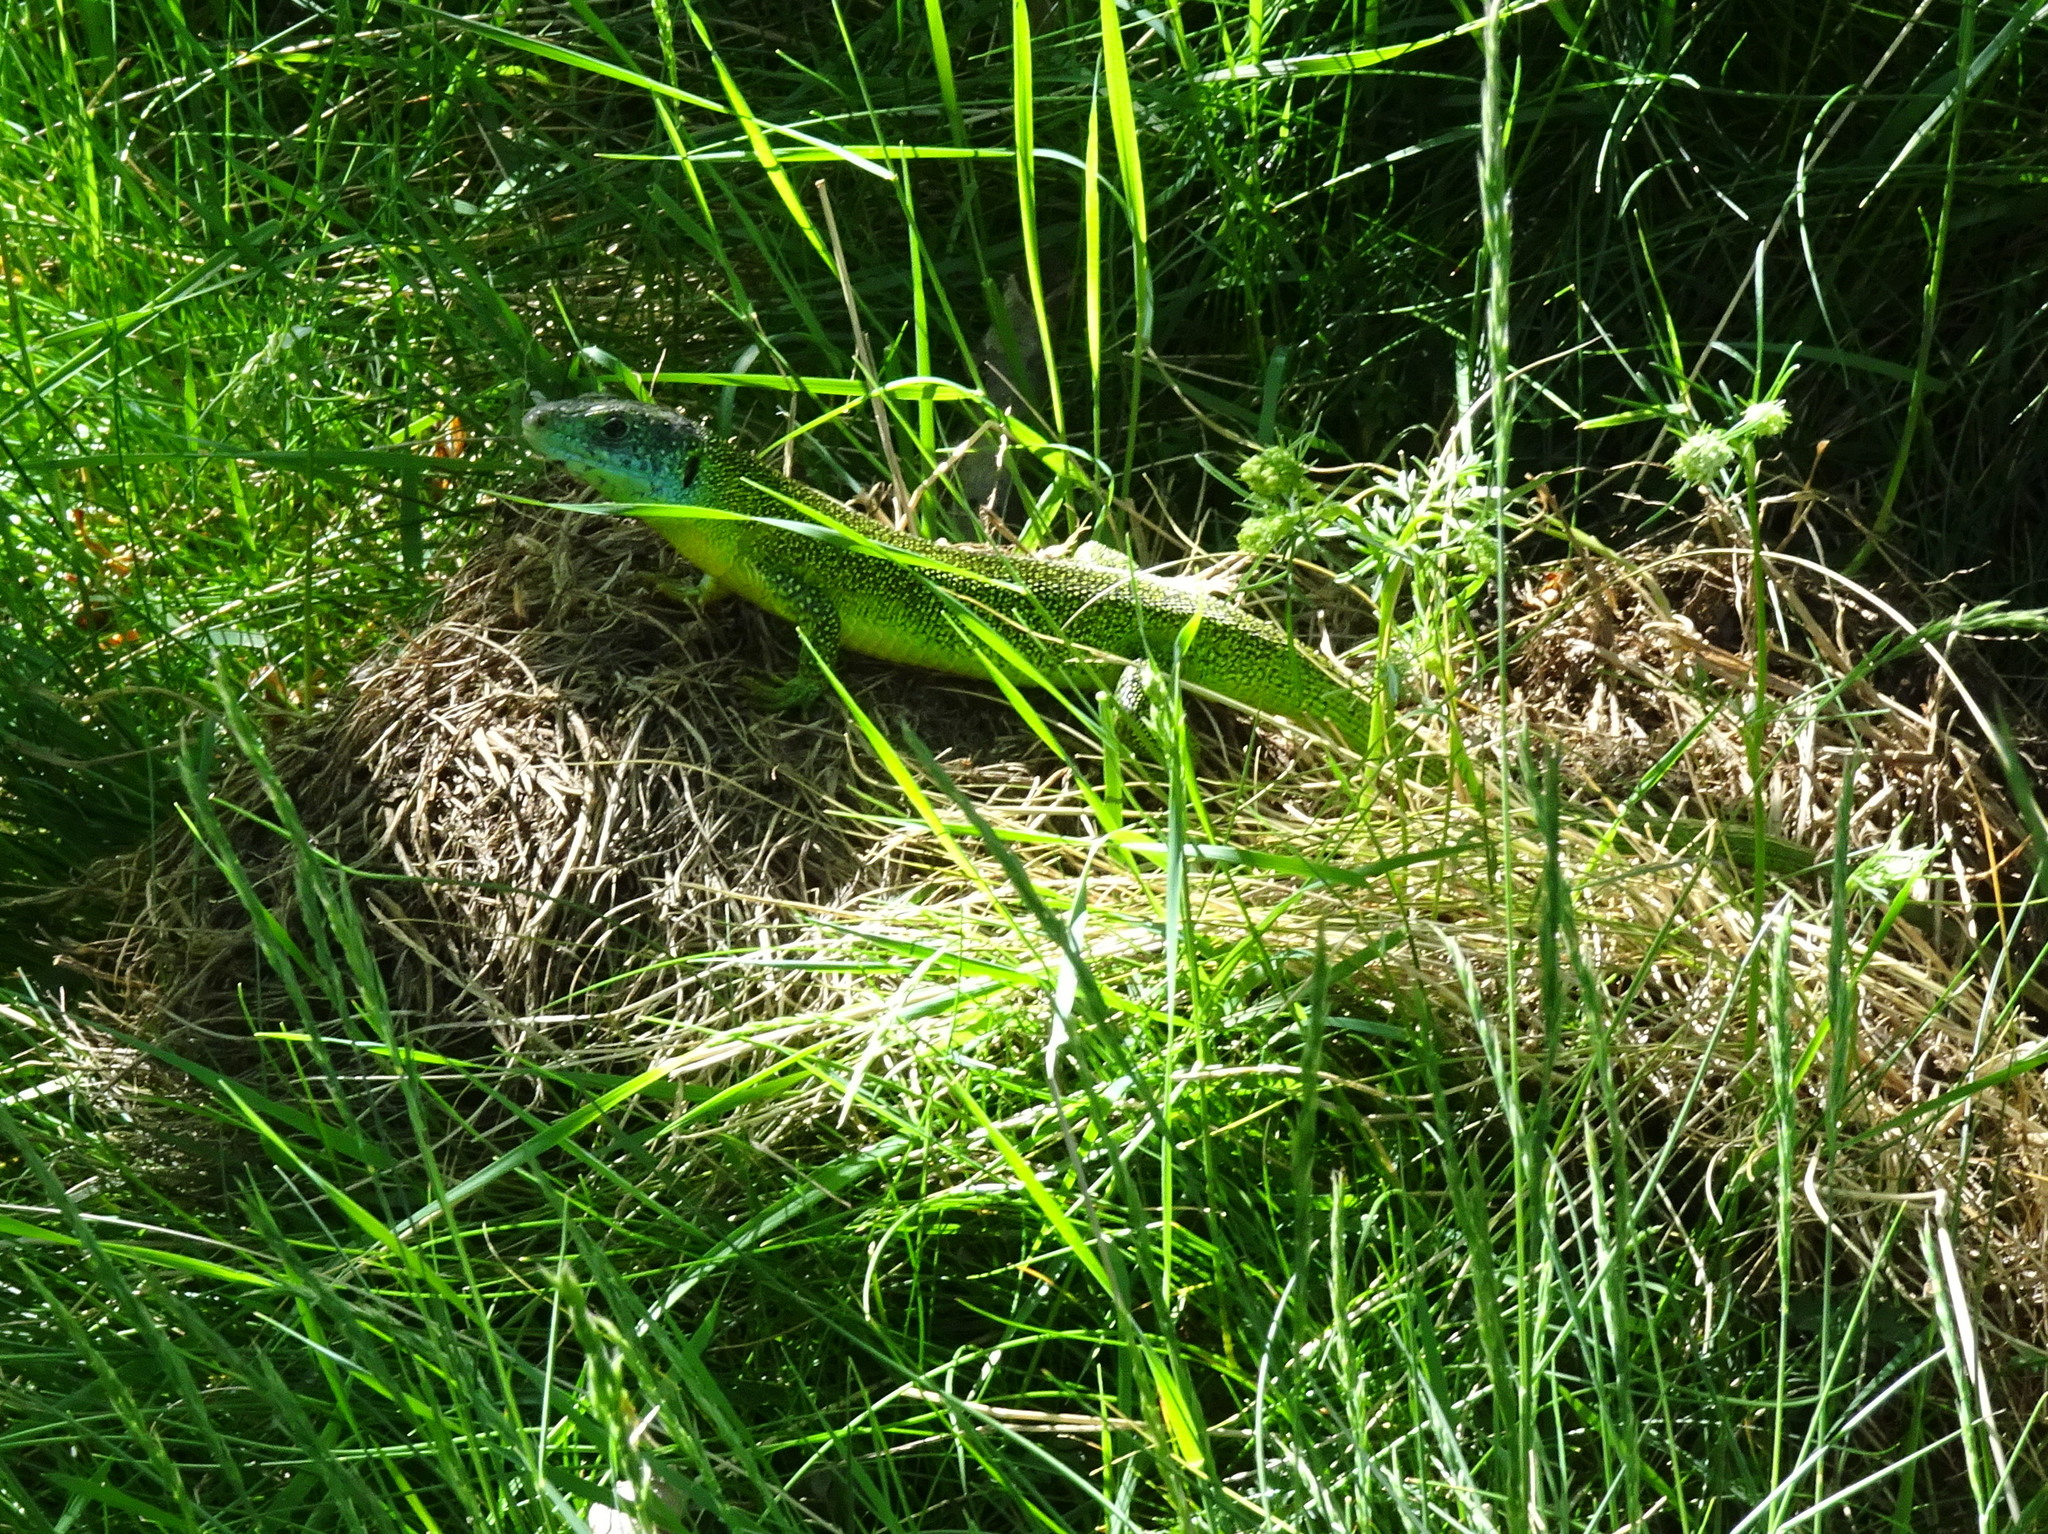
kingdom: Animalia
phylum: Chordata
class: Squamata
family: Lacertidae
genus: Lacerta
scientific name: Lacerta bilineata
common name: Western green lizard
